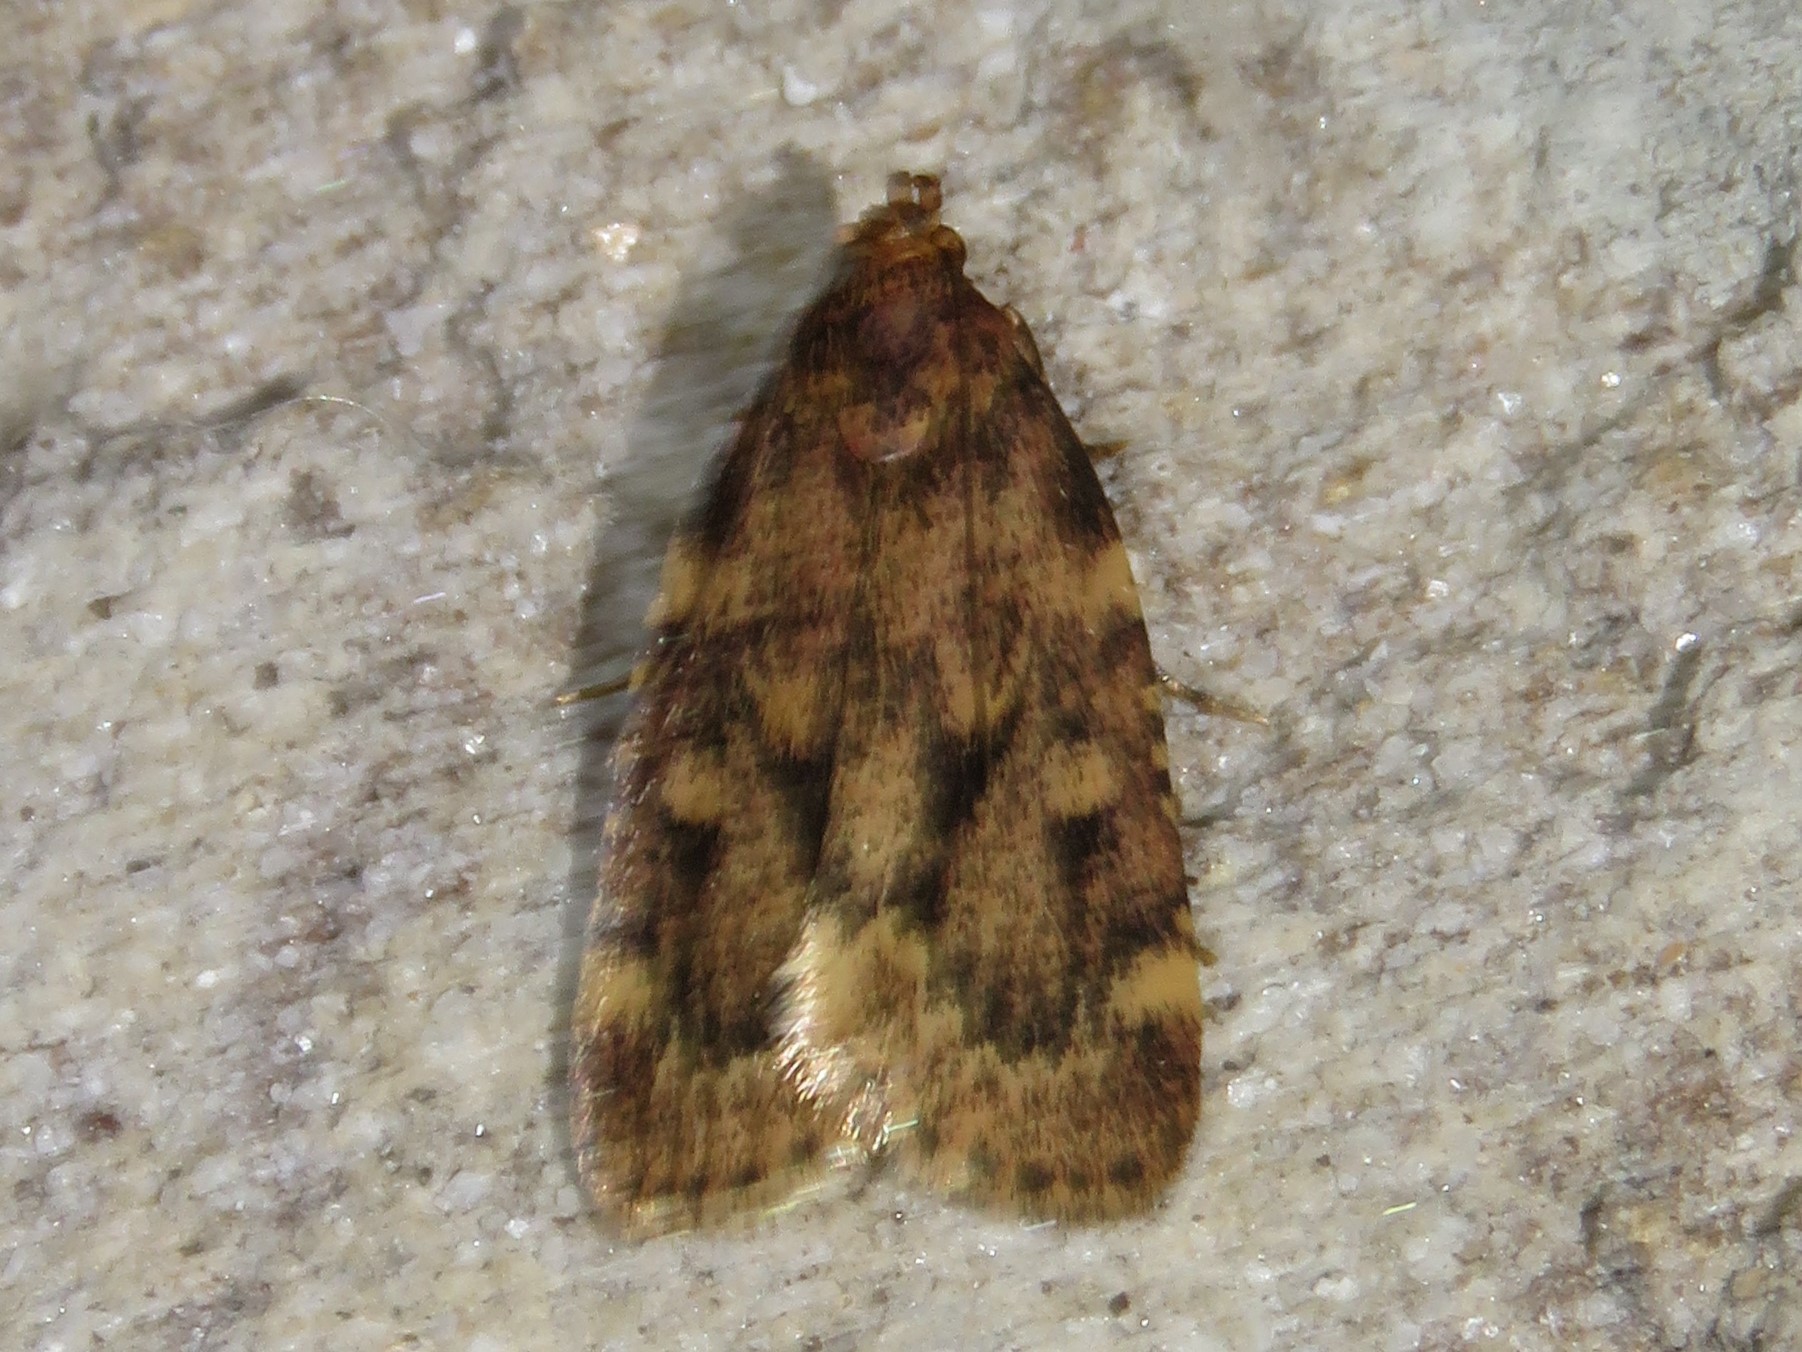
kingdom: Animalia
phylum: Arthropoda
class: Insecta
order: Lepidoptera
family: Pyralidae
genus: Aglossa
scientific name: Aglossa cuprina
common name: Grease moth
